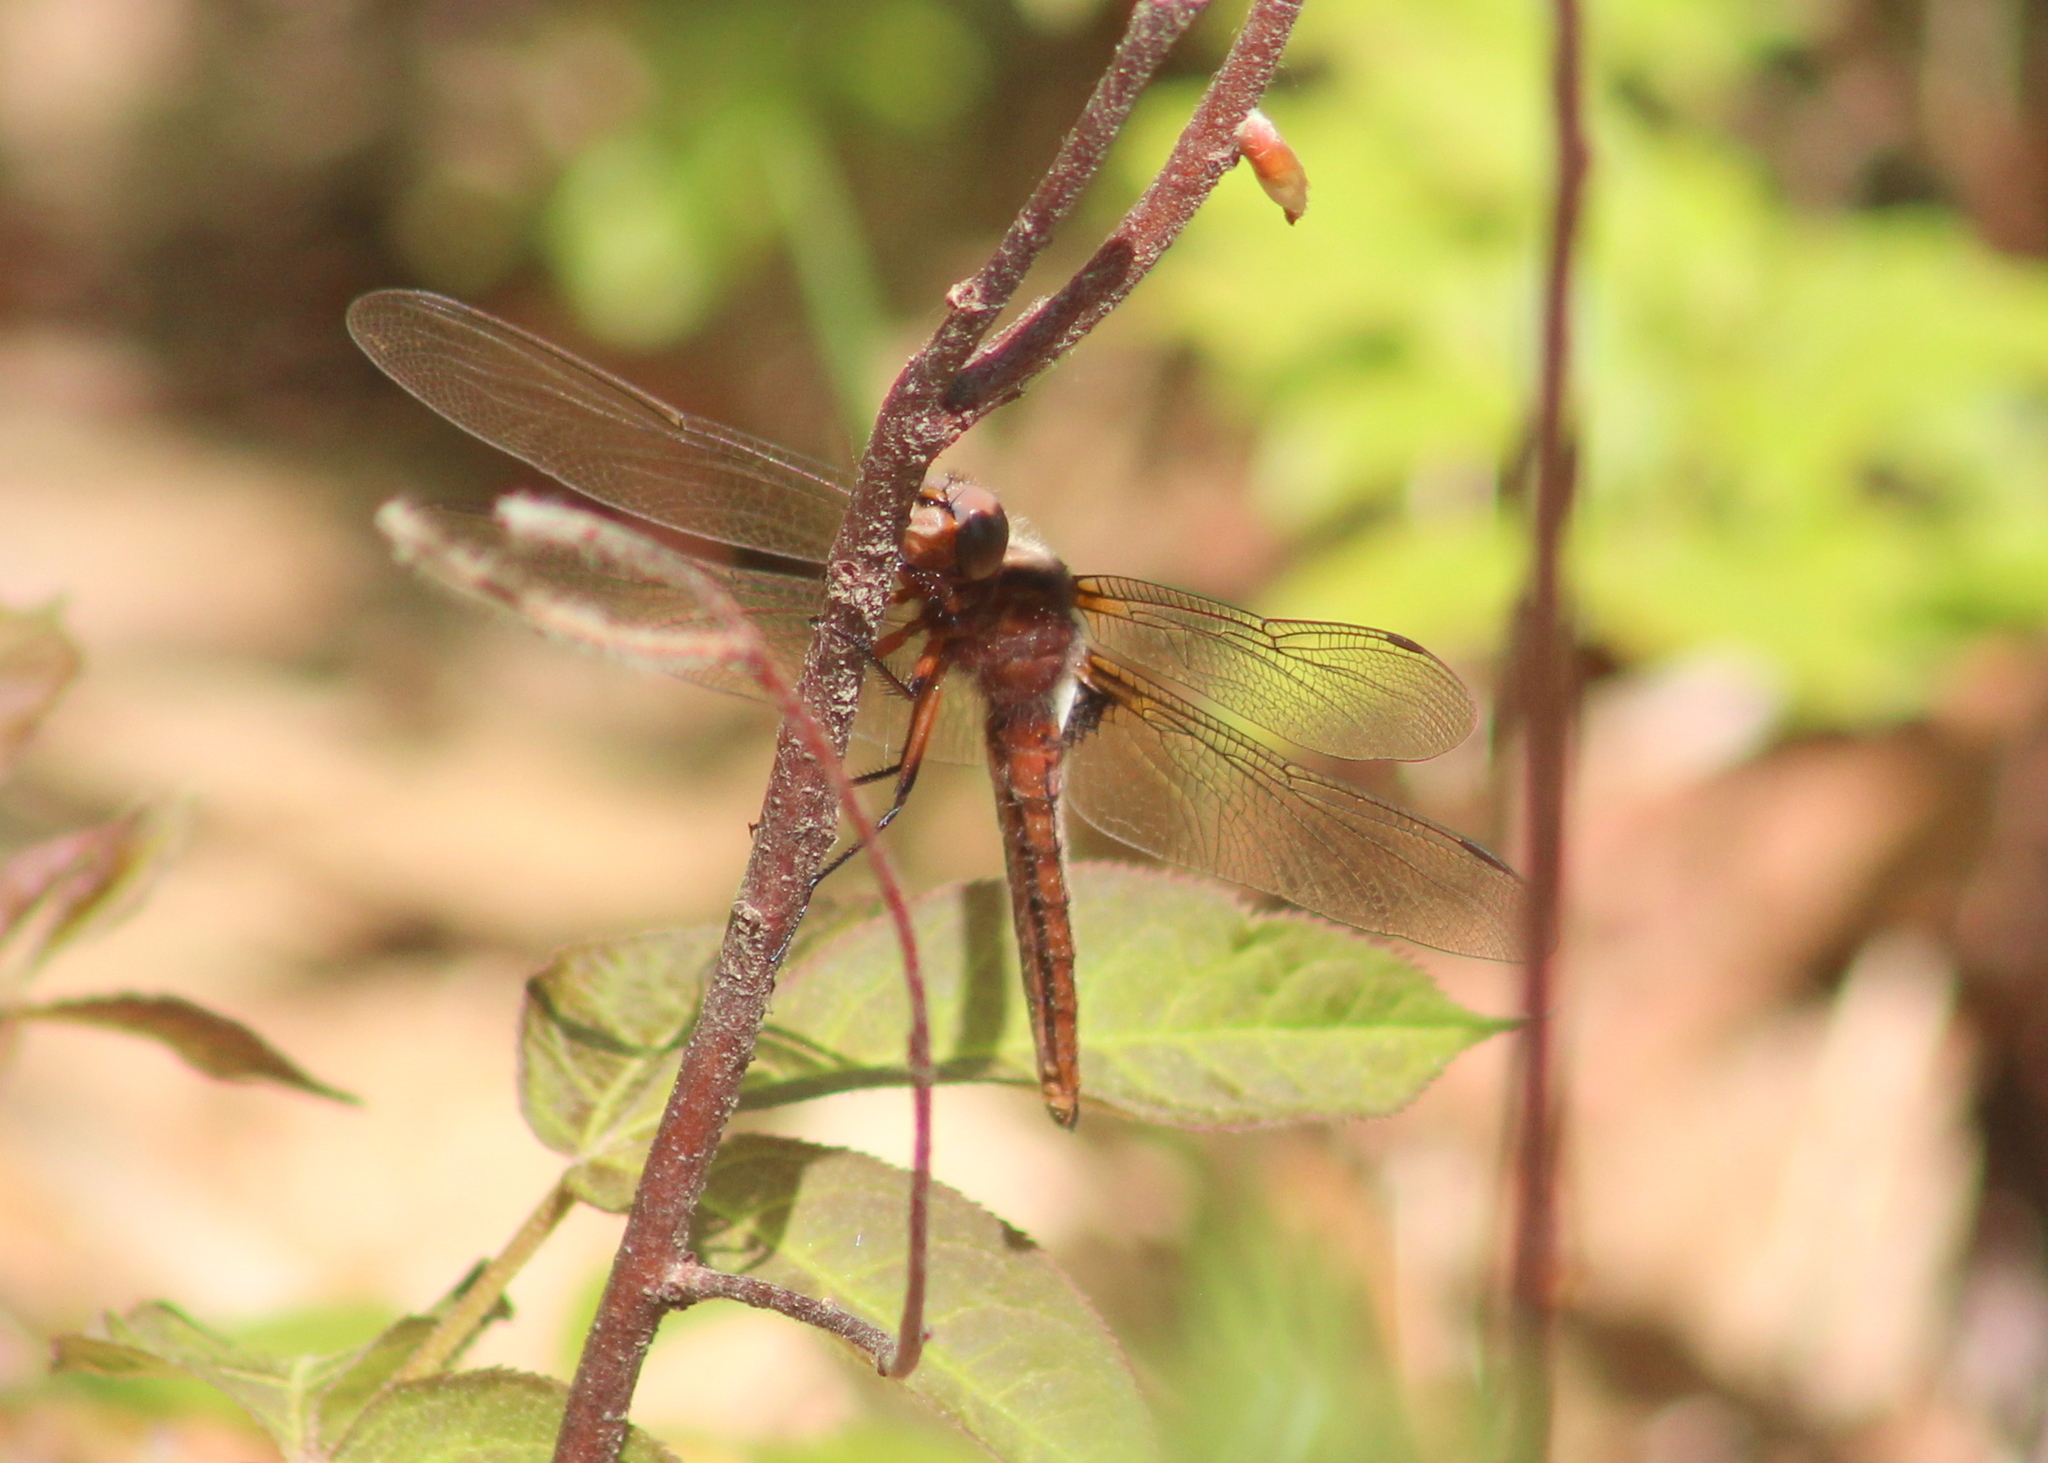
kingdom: Animalia
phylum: Arthropoda
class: Insecta
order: Odonata
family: Libellulidae
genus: Ladona
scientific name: Ladona julia
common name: Chalk-fronted corporal
